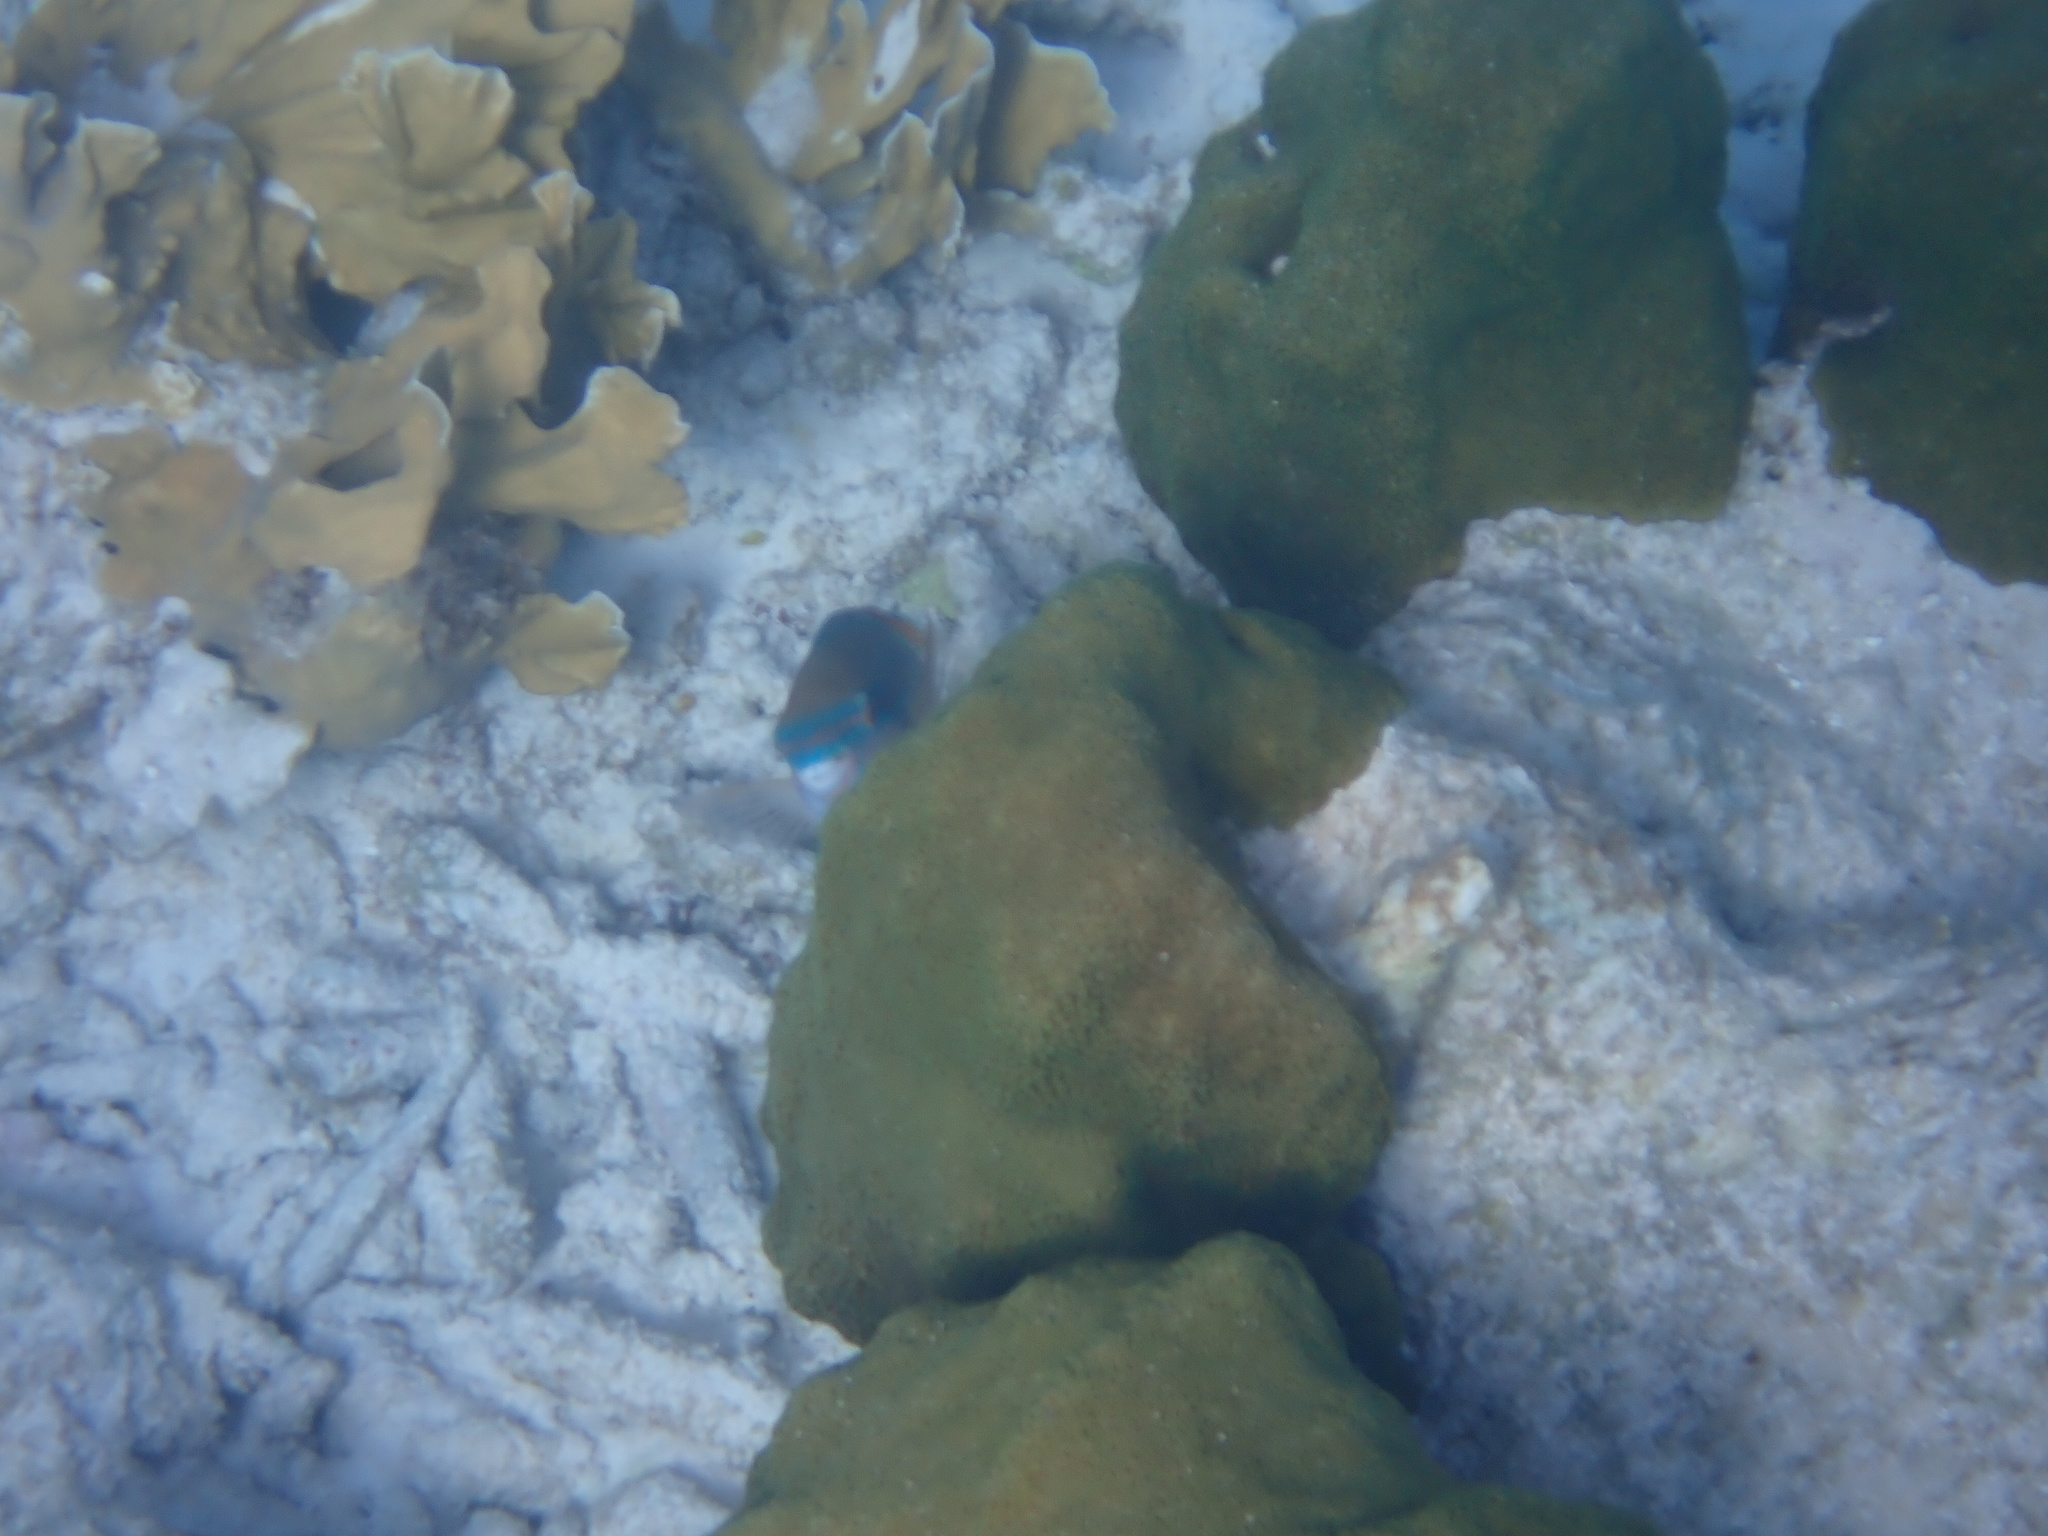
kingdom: Animalia
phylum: Cnidaria
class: Anthozoa
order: Scleractinia
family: Merulinidae
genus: Orbicella
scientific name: Orbicella faveolata
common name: Mountainous star coral
